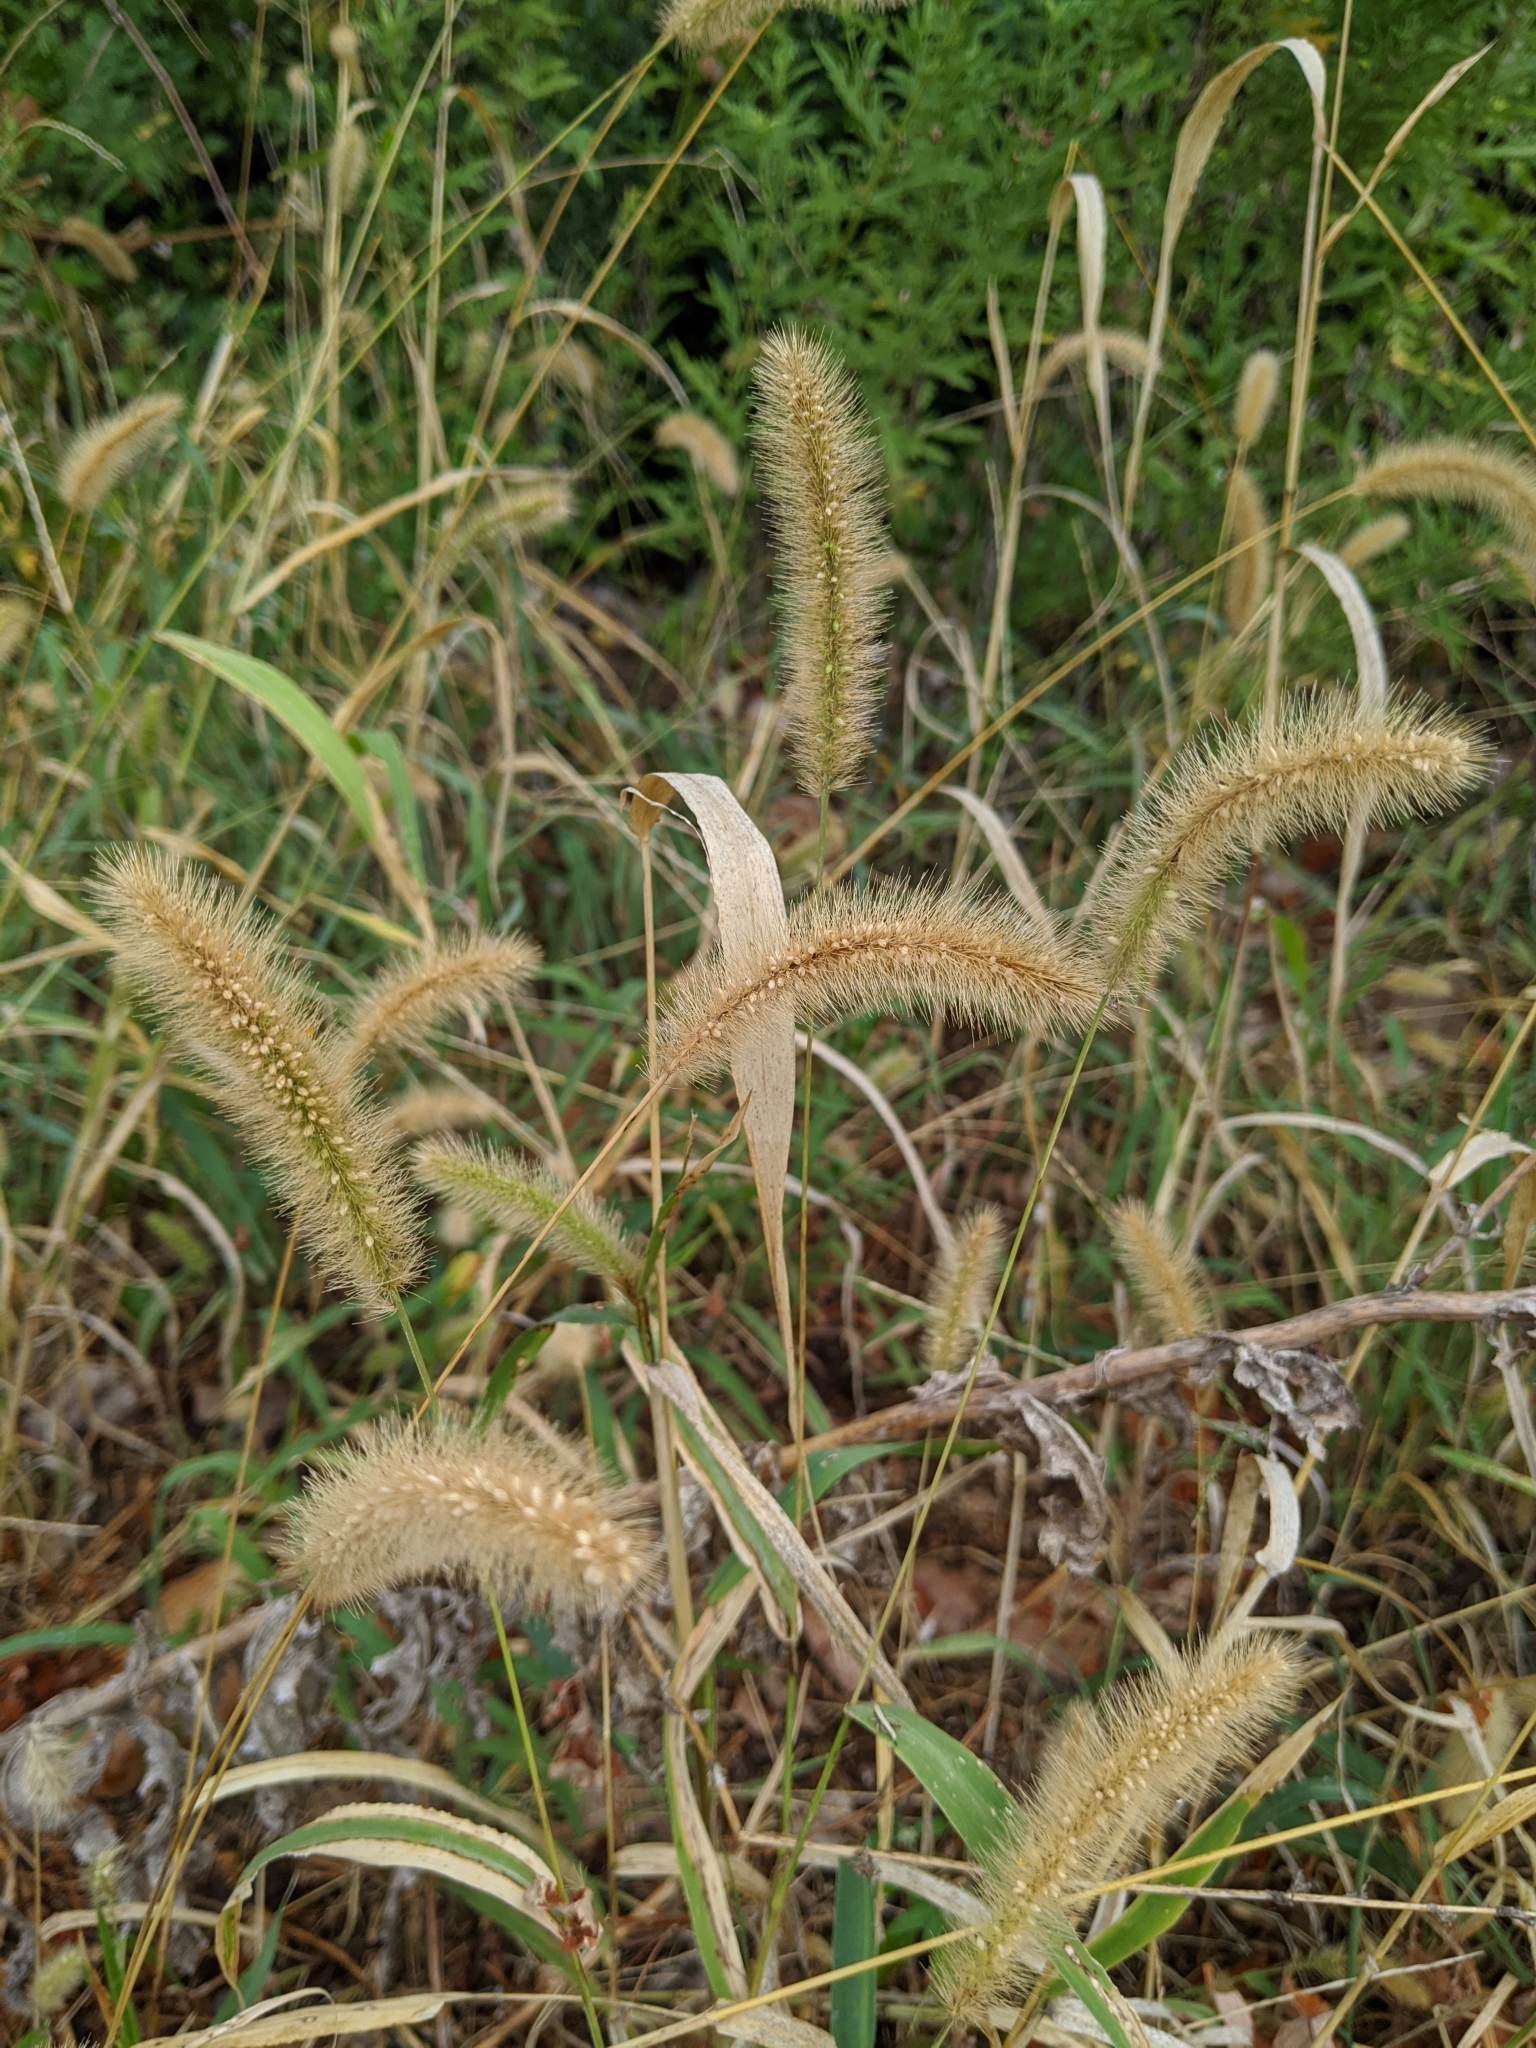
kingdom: Plantae
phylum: Tracheophyta
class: Liliopsida
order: Poales
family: Poaceae
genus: Setaria
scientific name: Setaria viridis
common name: Green bristlegrass
